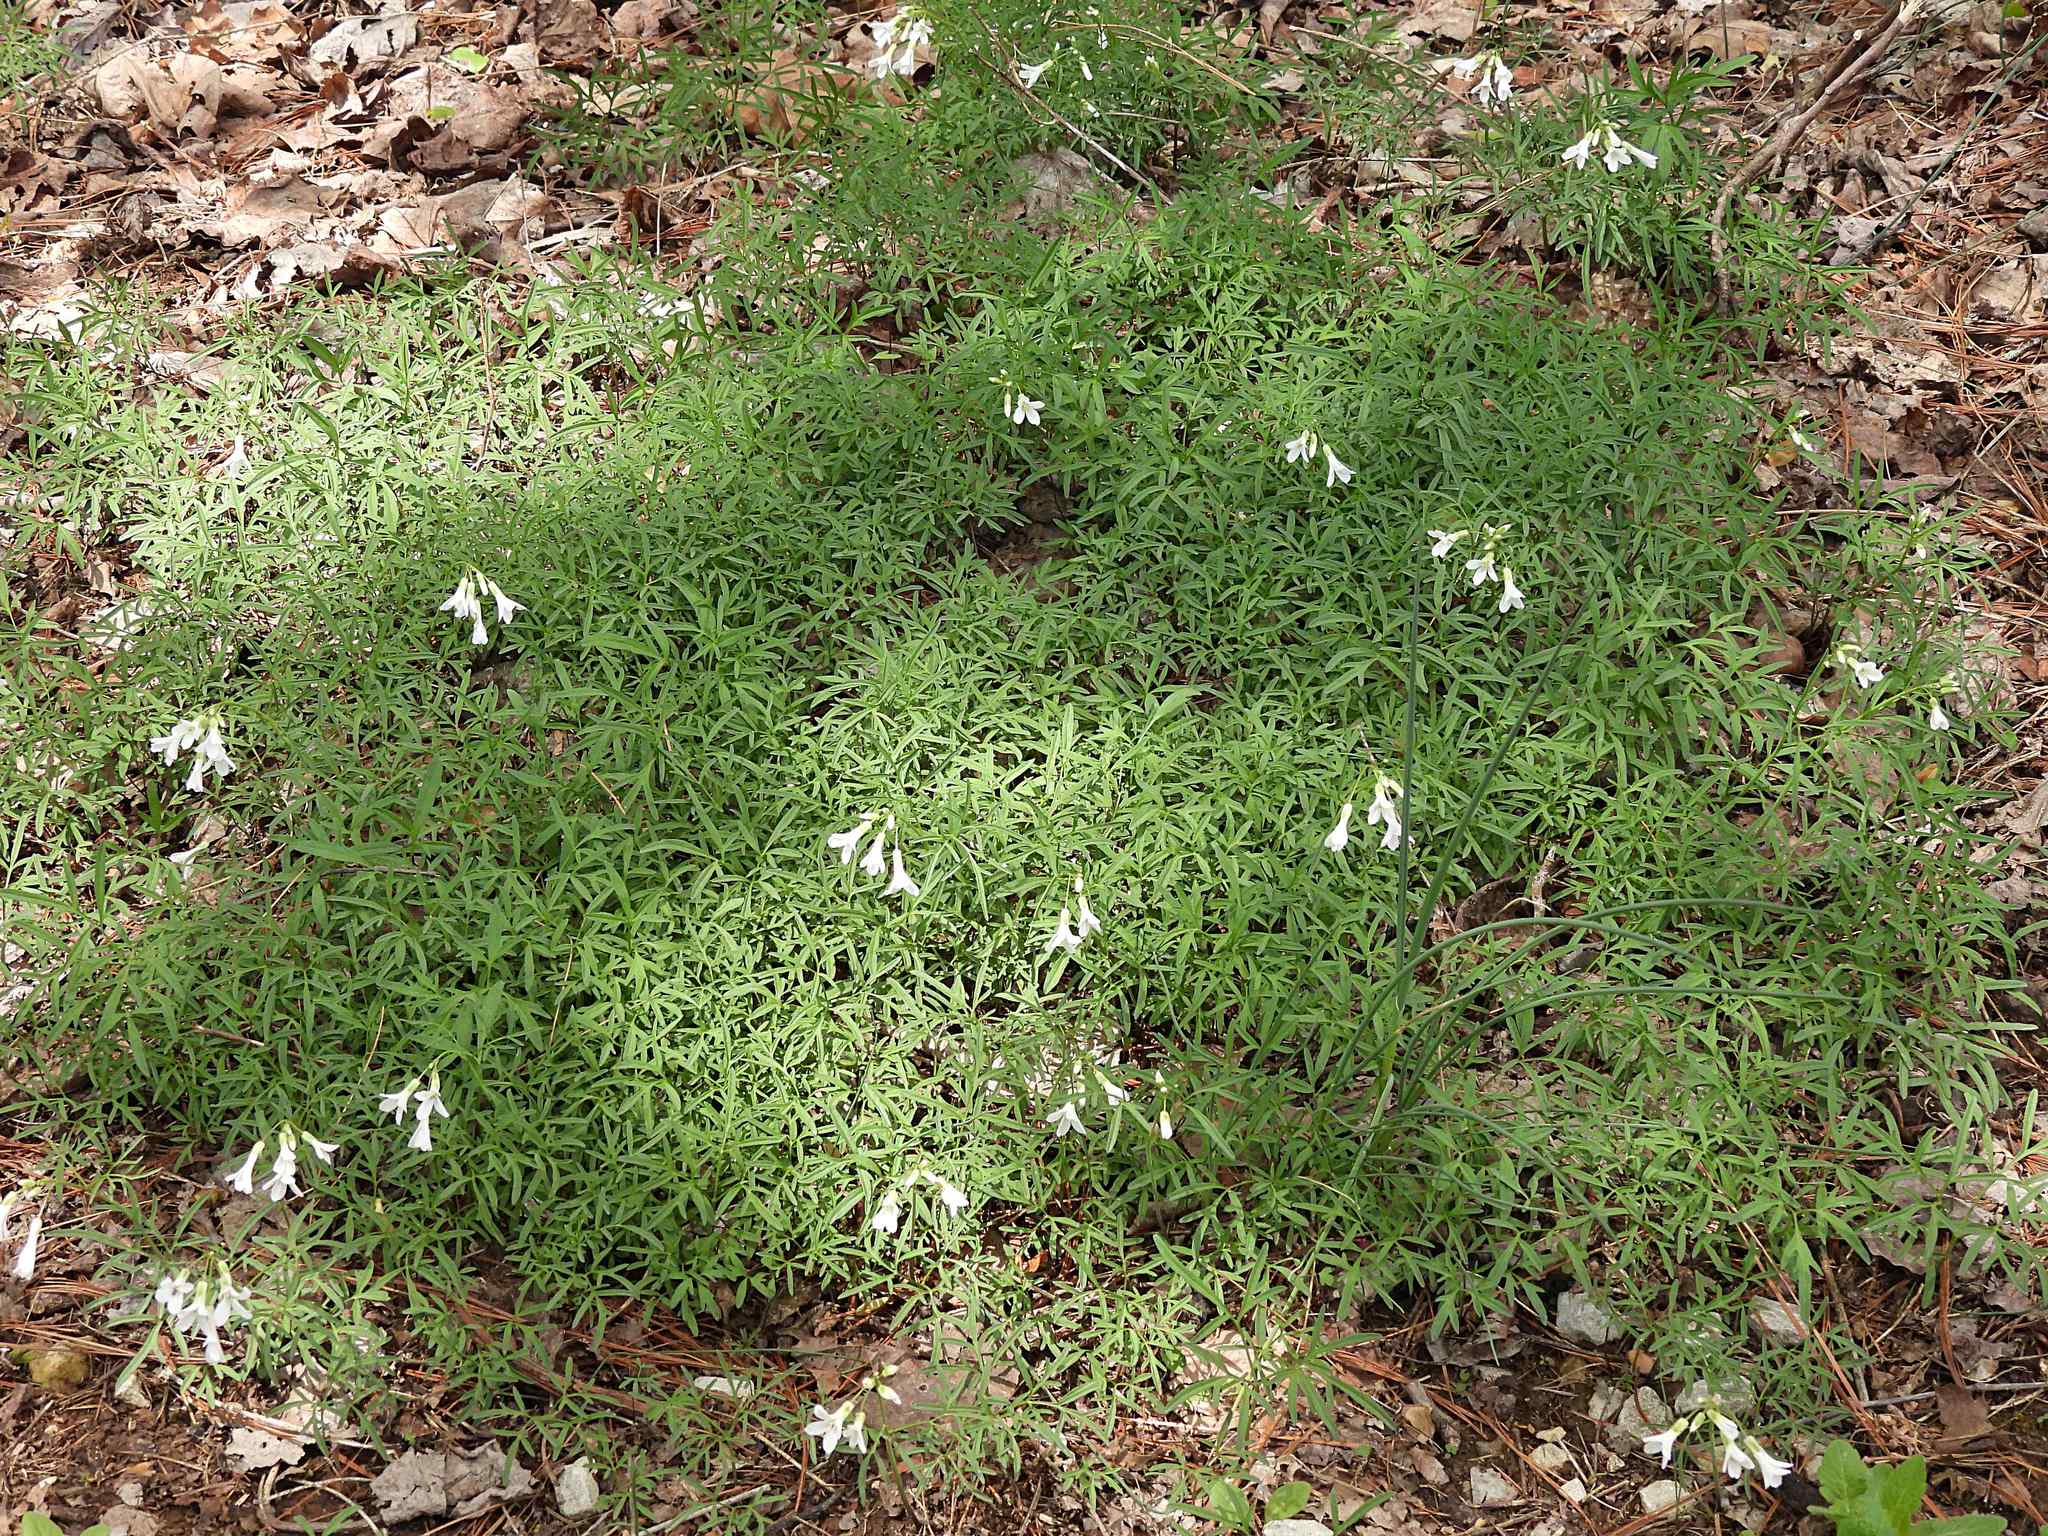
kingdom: Plantae
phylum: Tracheophyta
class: Magnoliopsida
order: Brassicales
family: Brassicaceae
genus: Cardamine
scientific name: Cardamine dissecta
